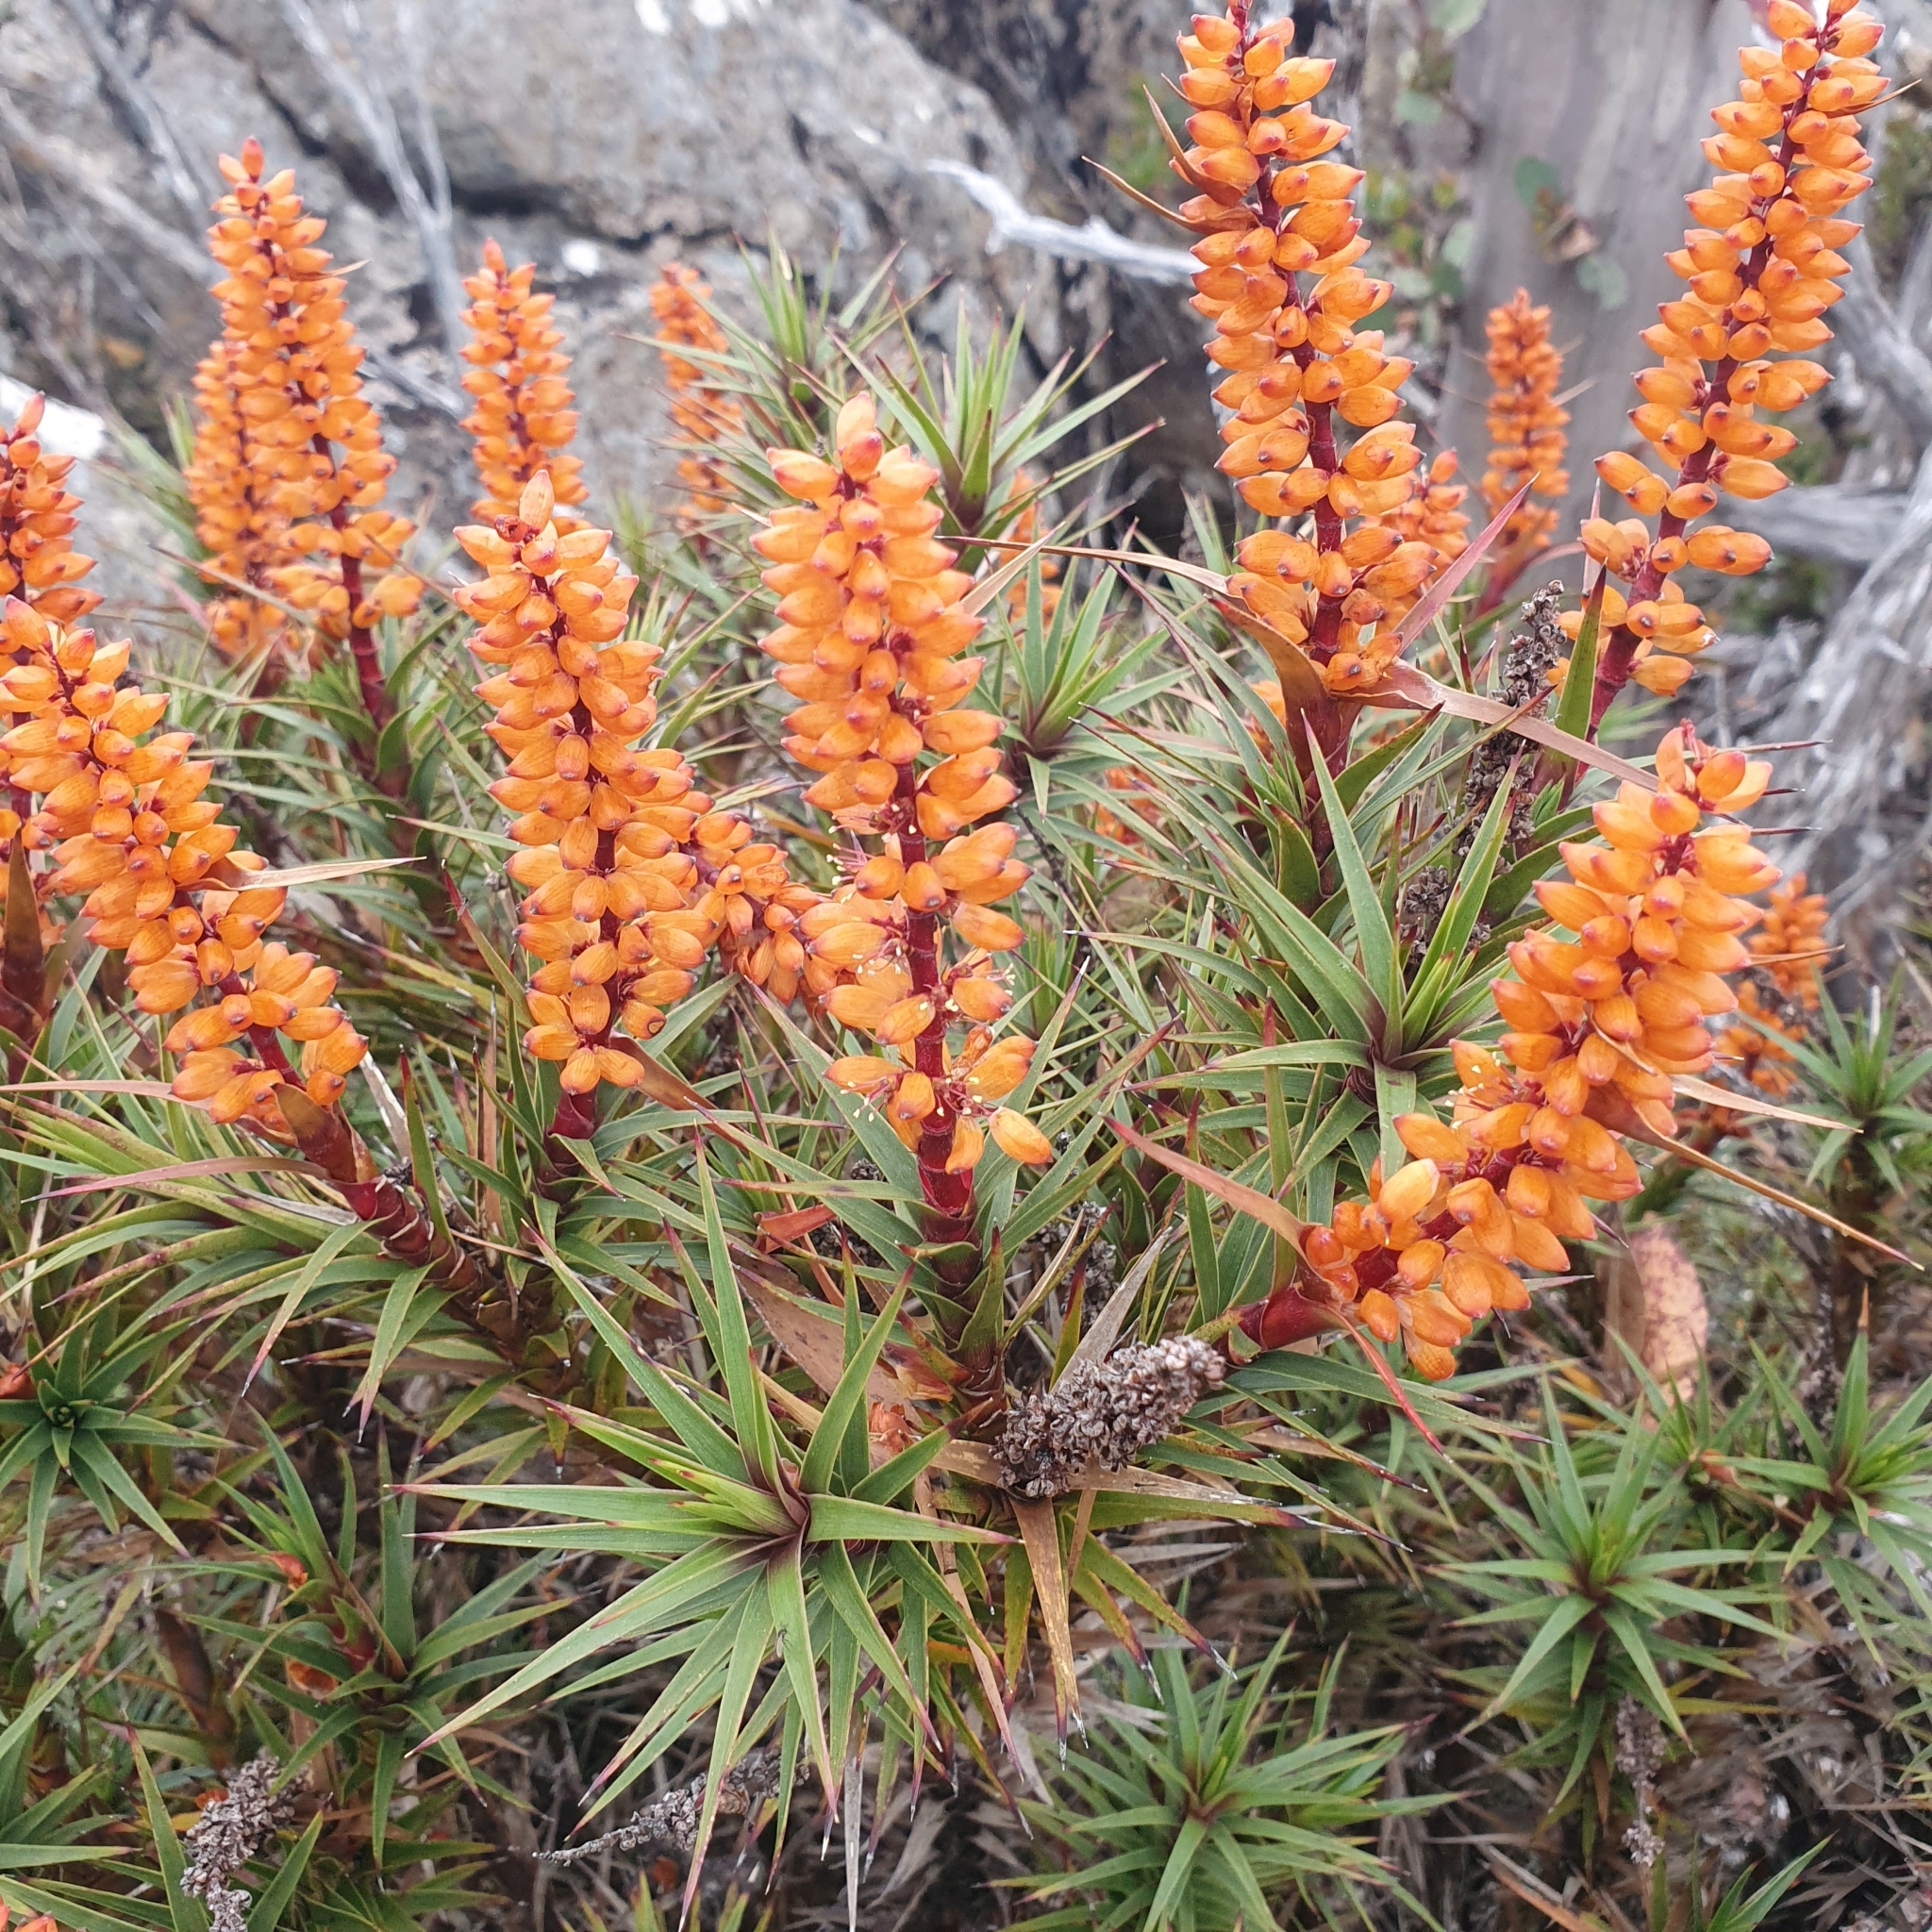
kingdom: Plantae
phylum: Tracheophyta
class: Magnoliopsida
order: Ericales
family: Ericaceae
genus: Dracophyllum
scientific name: Dracophyllum persistentifolium
